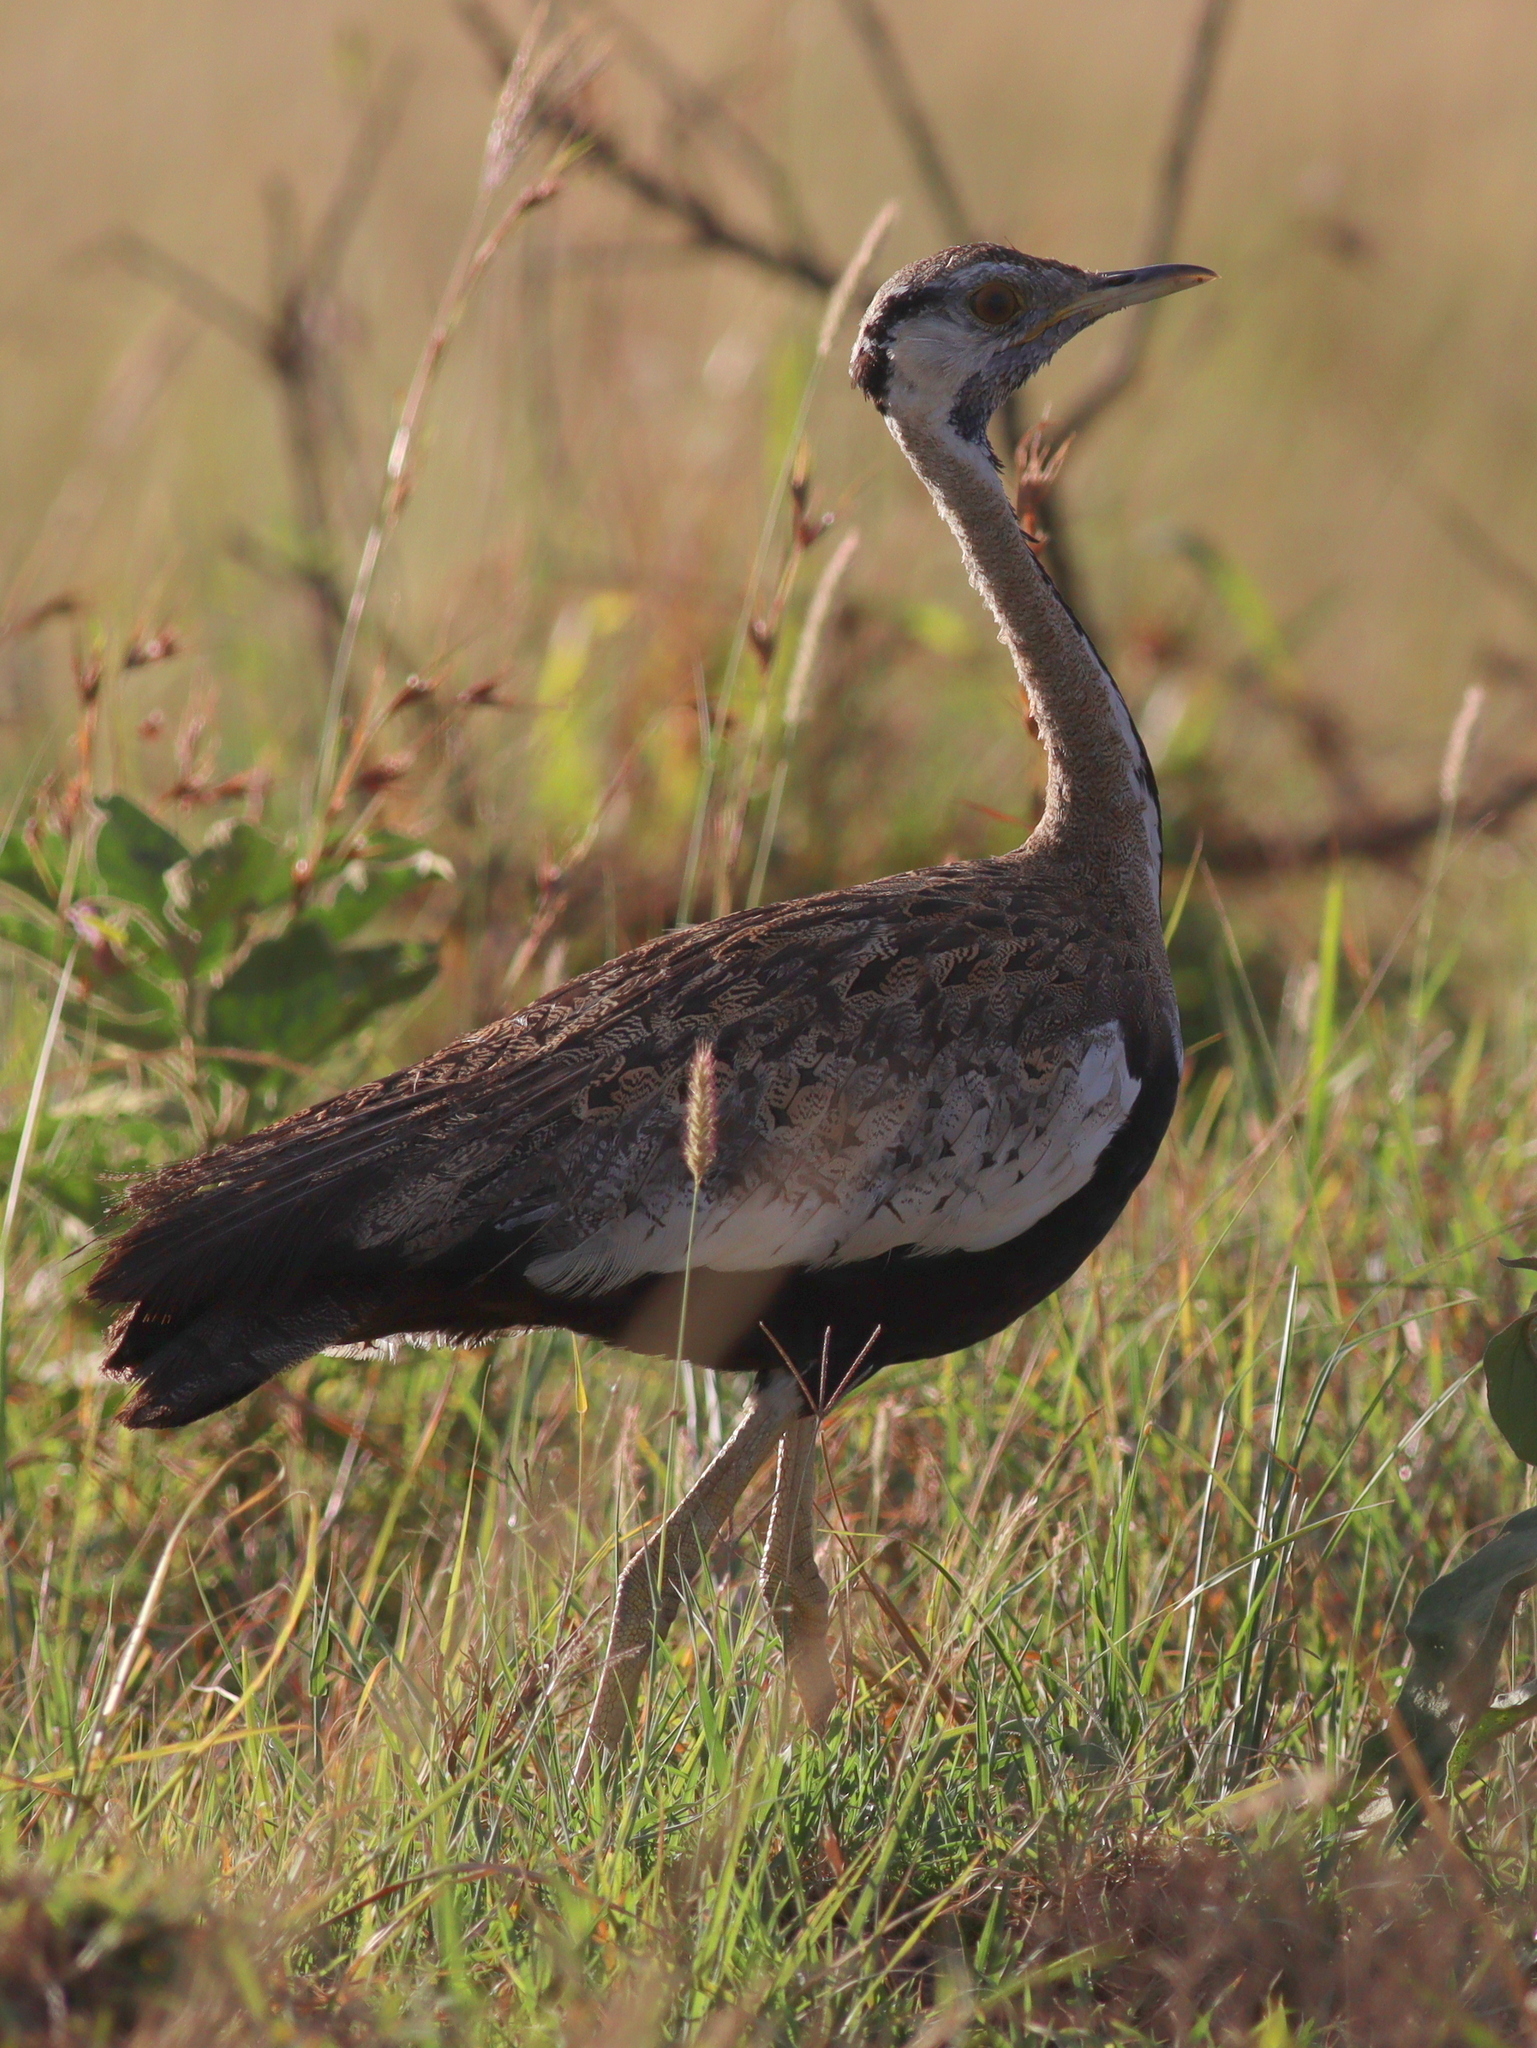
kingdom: Animalia
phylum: Chordata
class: Aves
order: Otidiformes
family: Otididae
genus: Lissotis
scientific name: Lissotis melanogaster
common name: Black-bellied bustard
